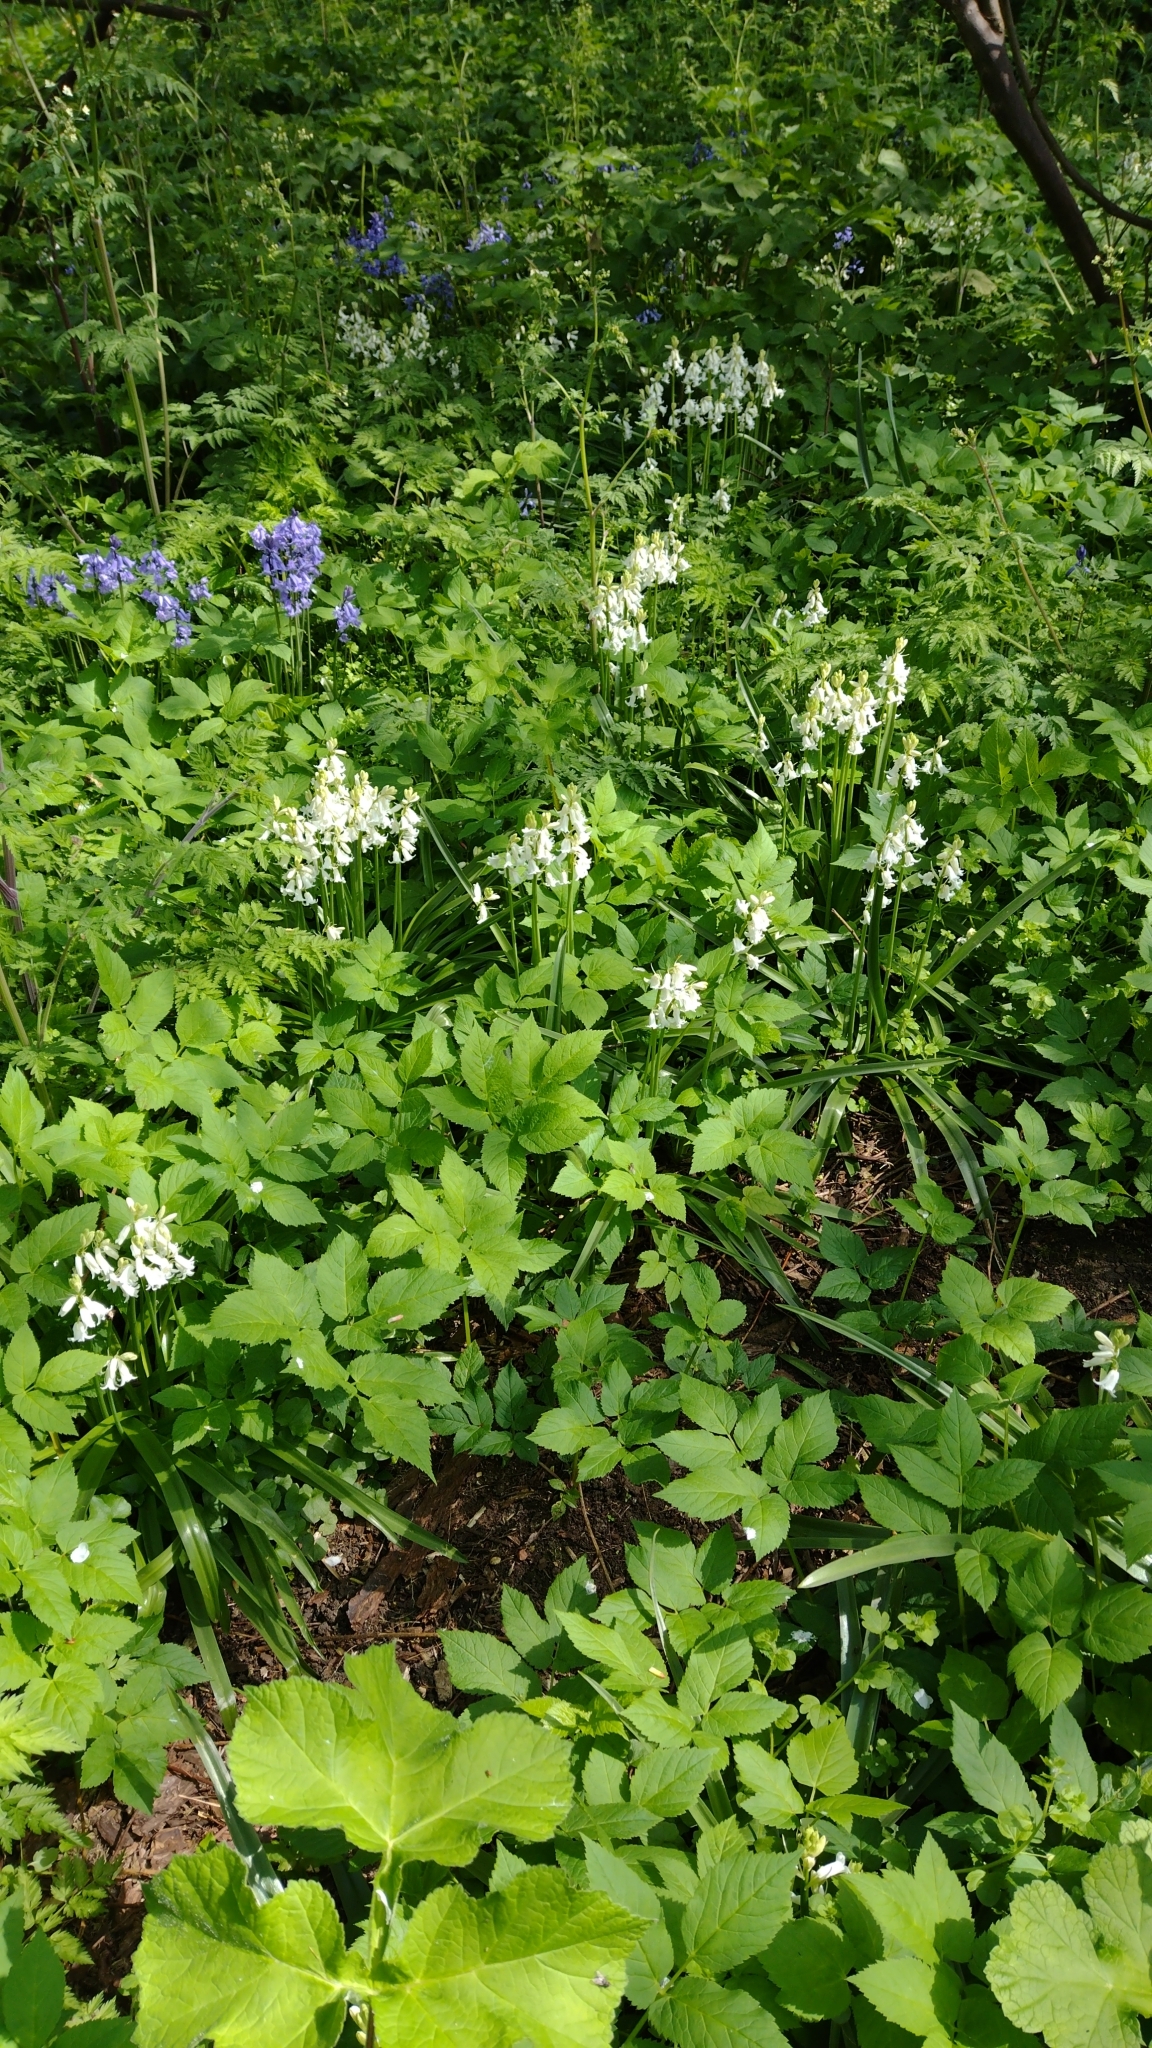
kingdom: Plantae
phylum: Tracheophyta
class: Liliopsida
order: Asparagales
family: Asparagaceae
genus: Hyacinthoides
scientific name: Hyacinthoides massartiana
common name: Hyacinthoides
